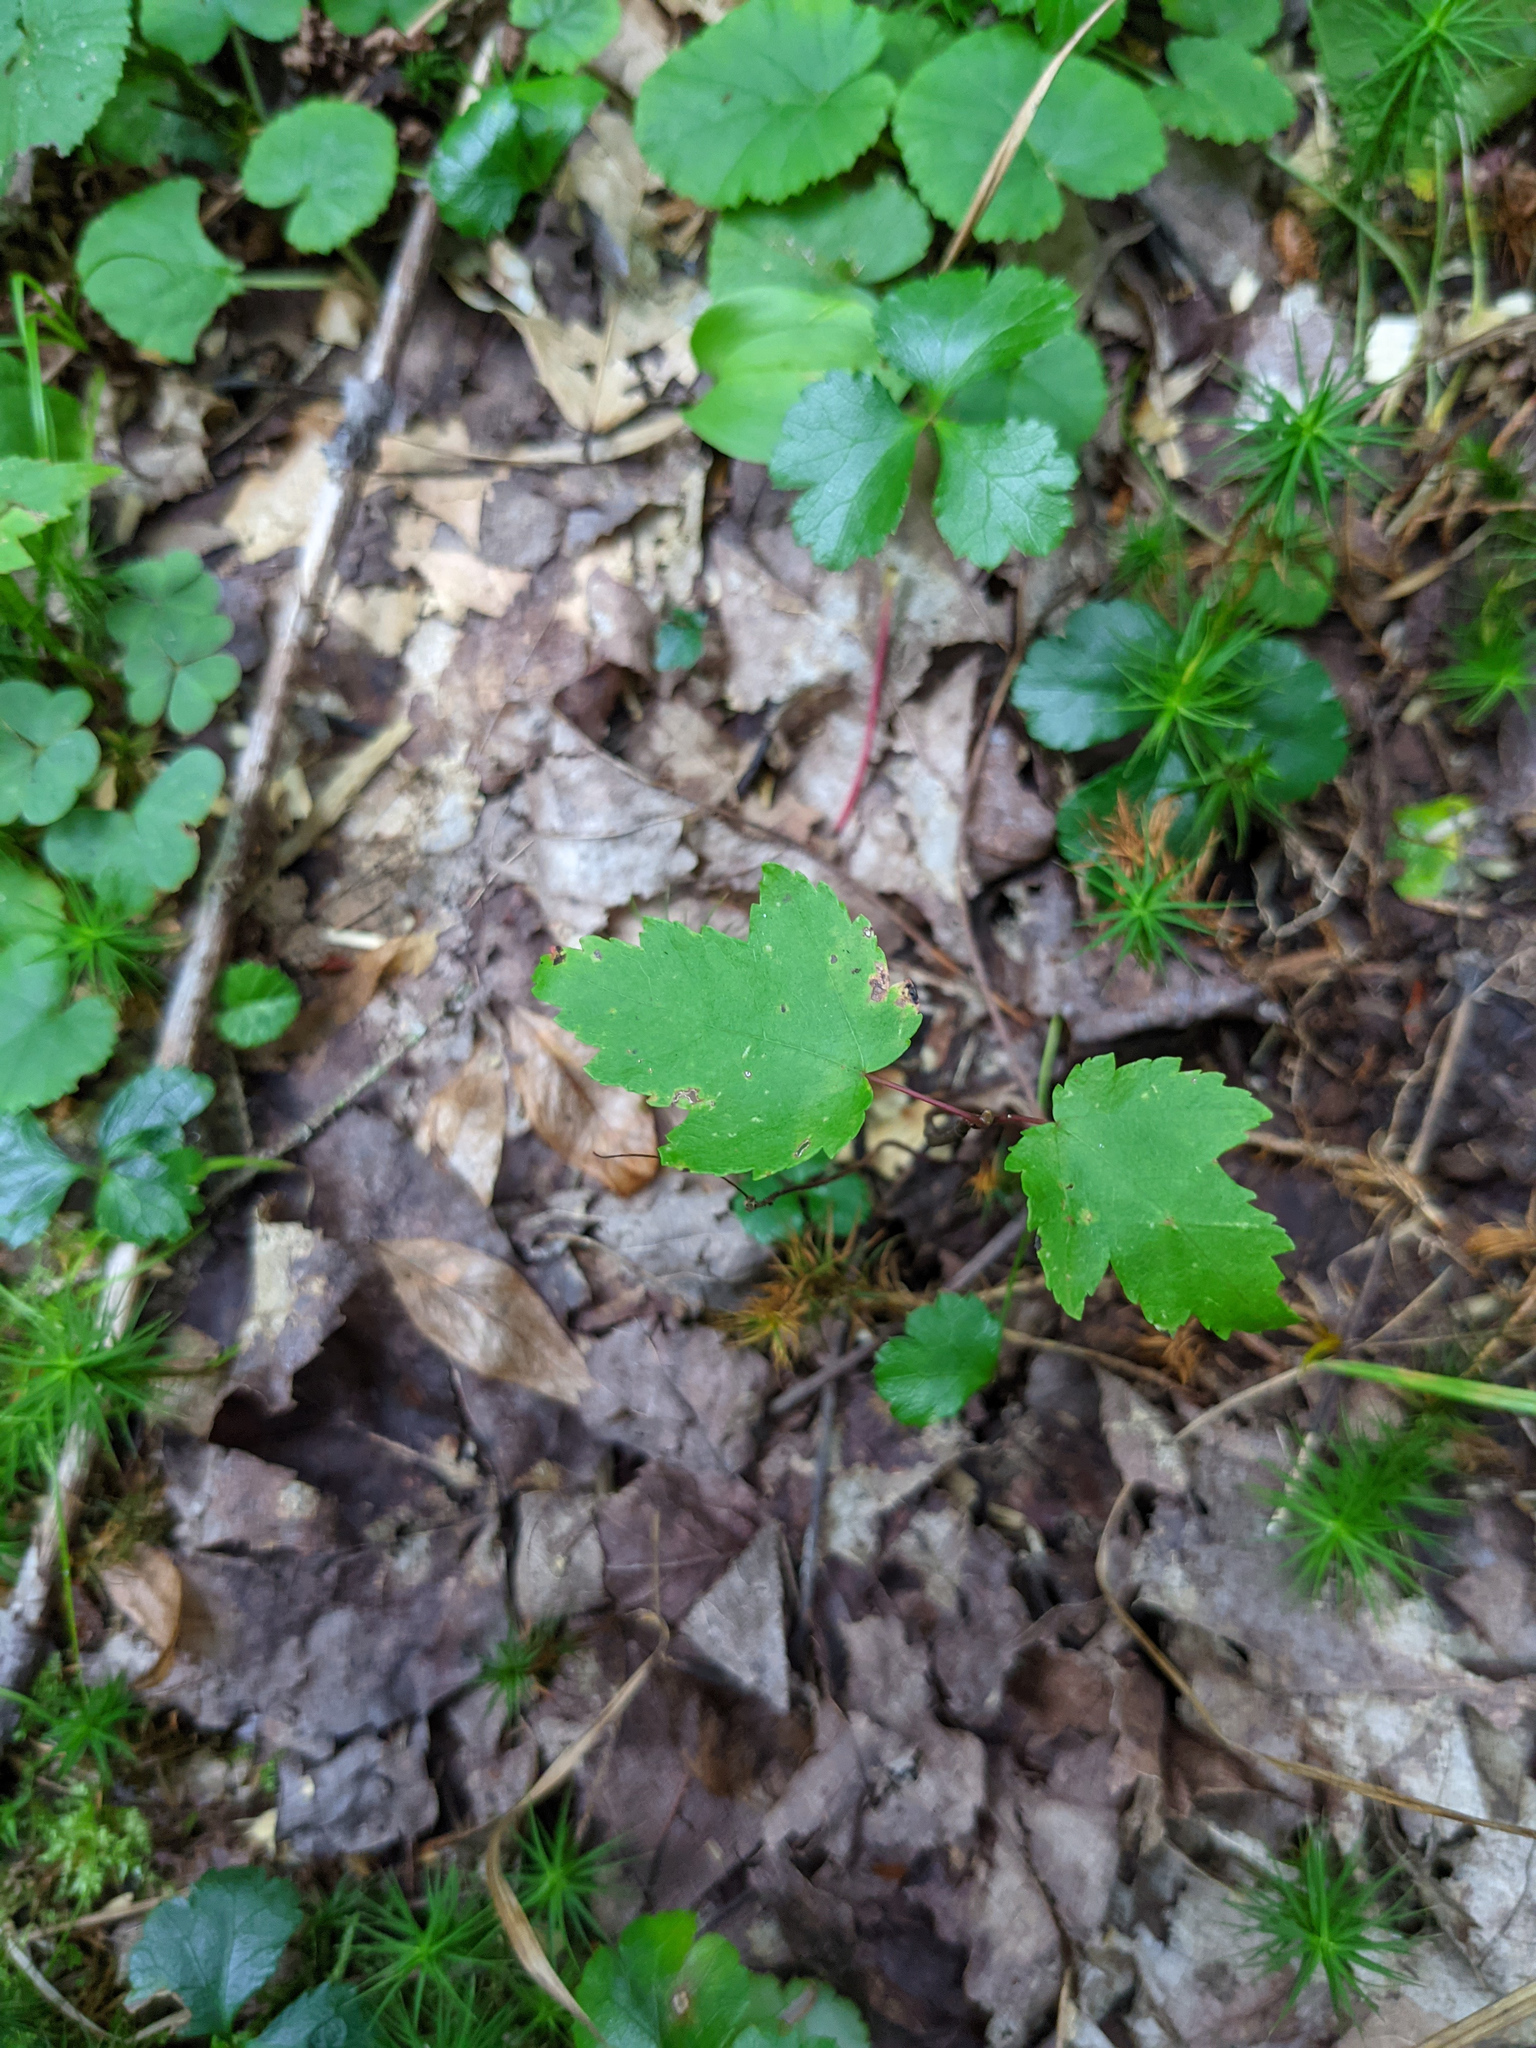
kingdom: Plantae
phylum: Tracheophyta
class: Magnoliopsida
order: Sapindales
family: Sapindaceae
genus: Acer
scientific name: Acer rubrum
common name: Red maple
